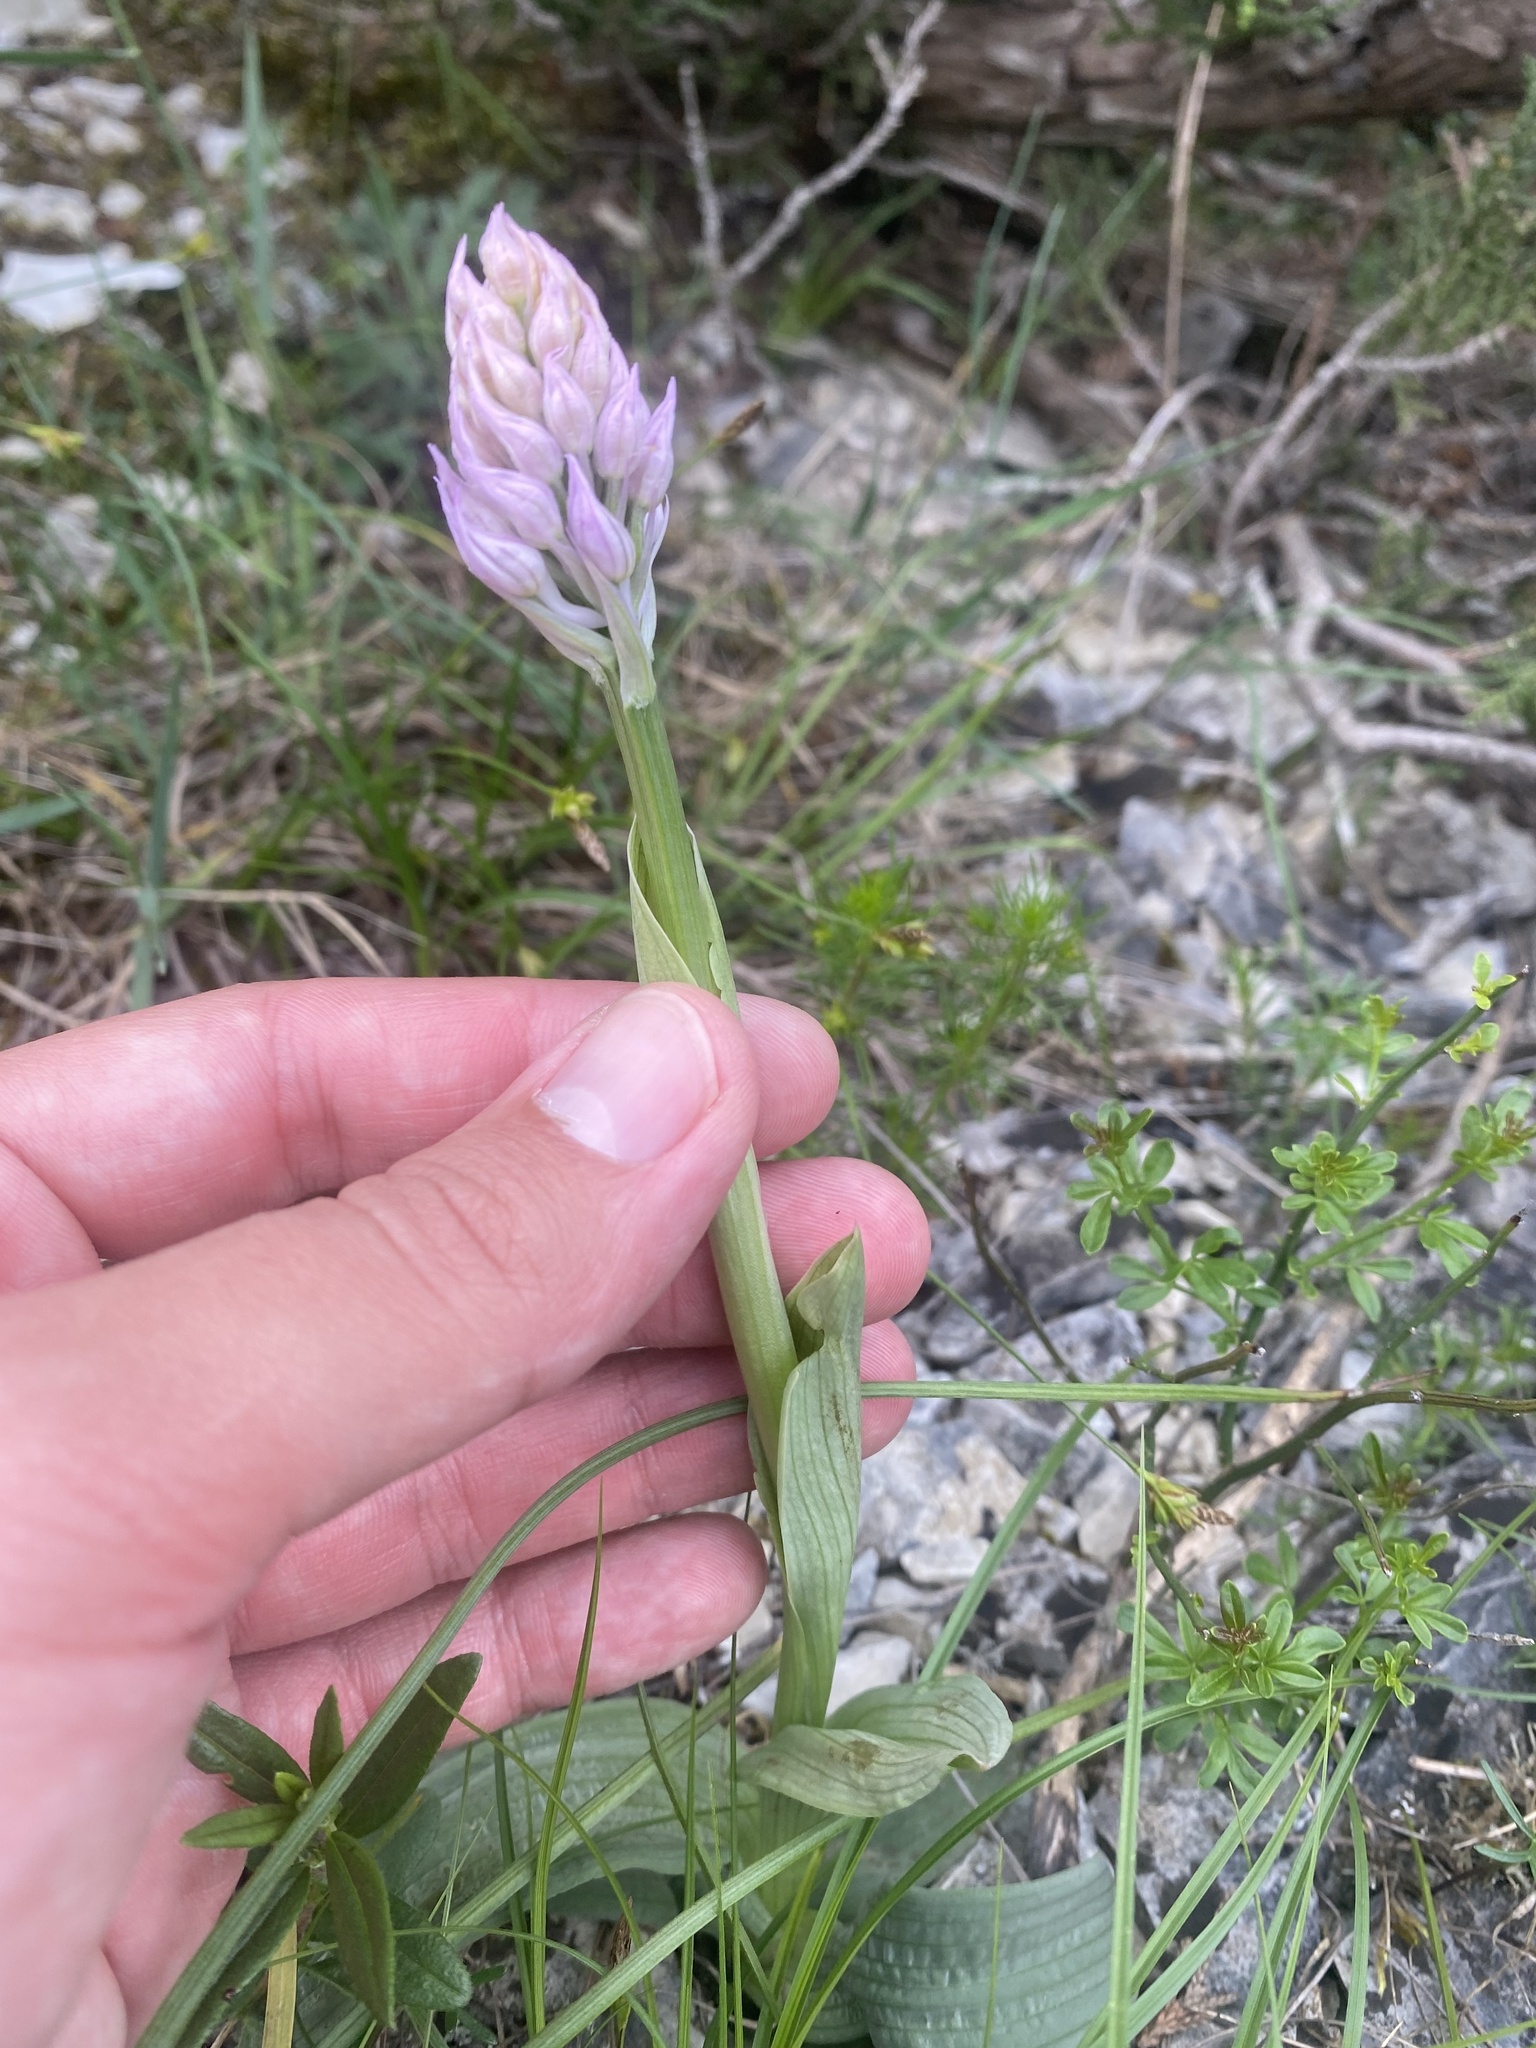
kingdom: Plantae
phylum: Tracheophyta
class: Liliopsida
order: Asparagales
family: Orchidaceae
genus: Neotinea
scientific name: Neotinea tridentata
